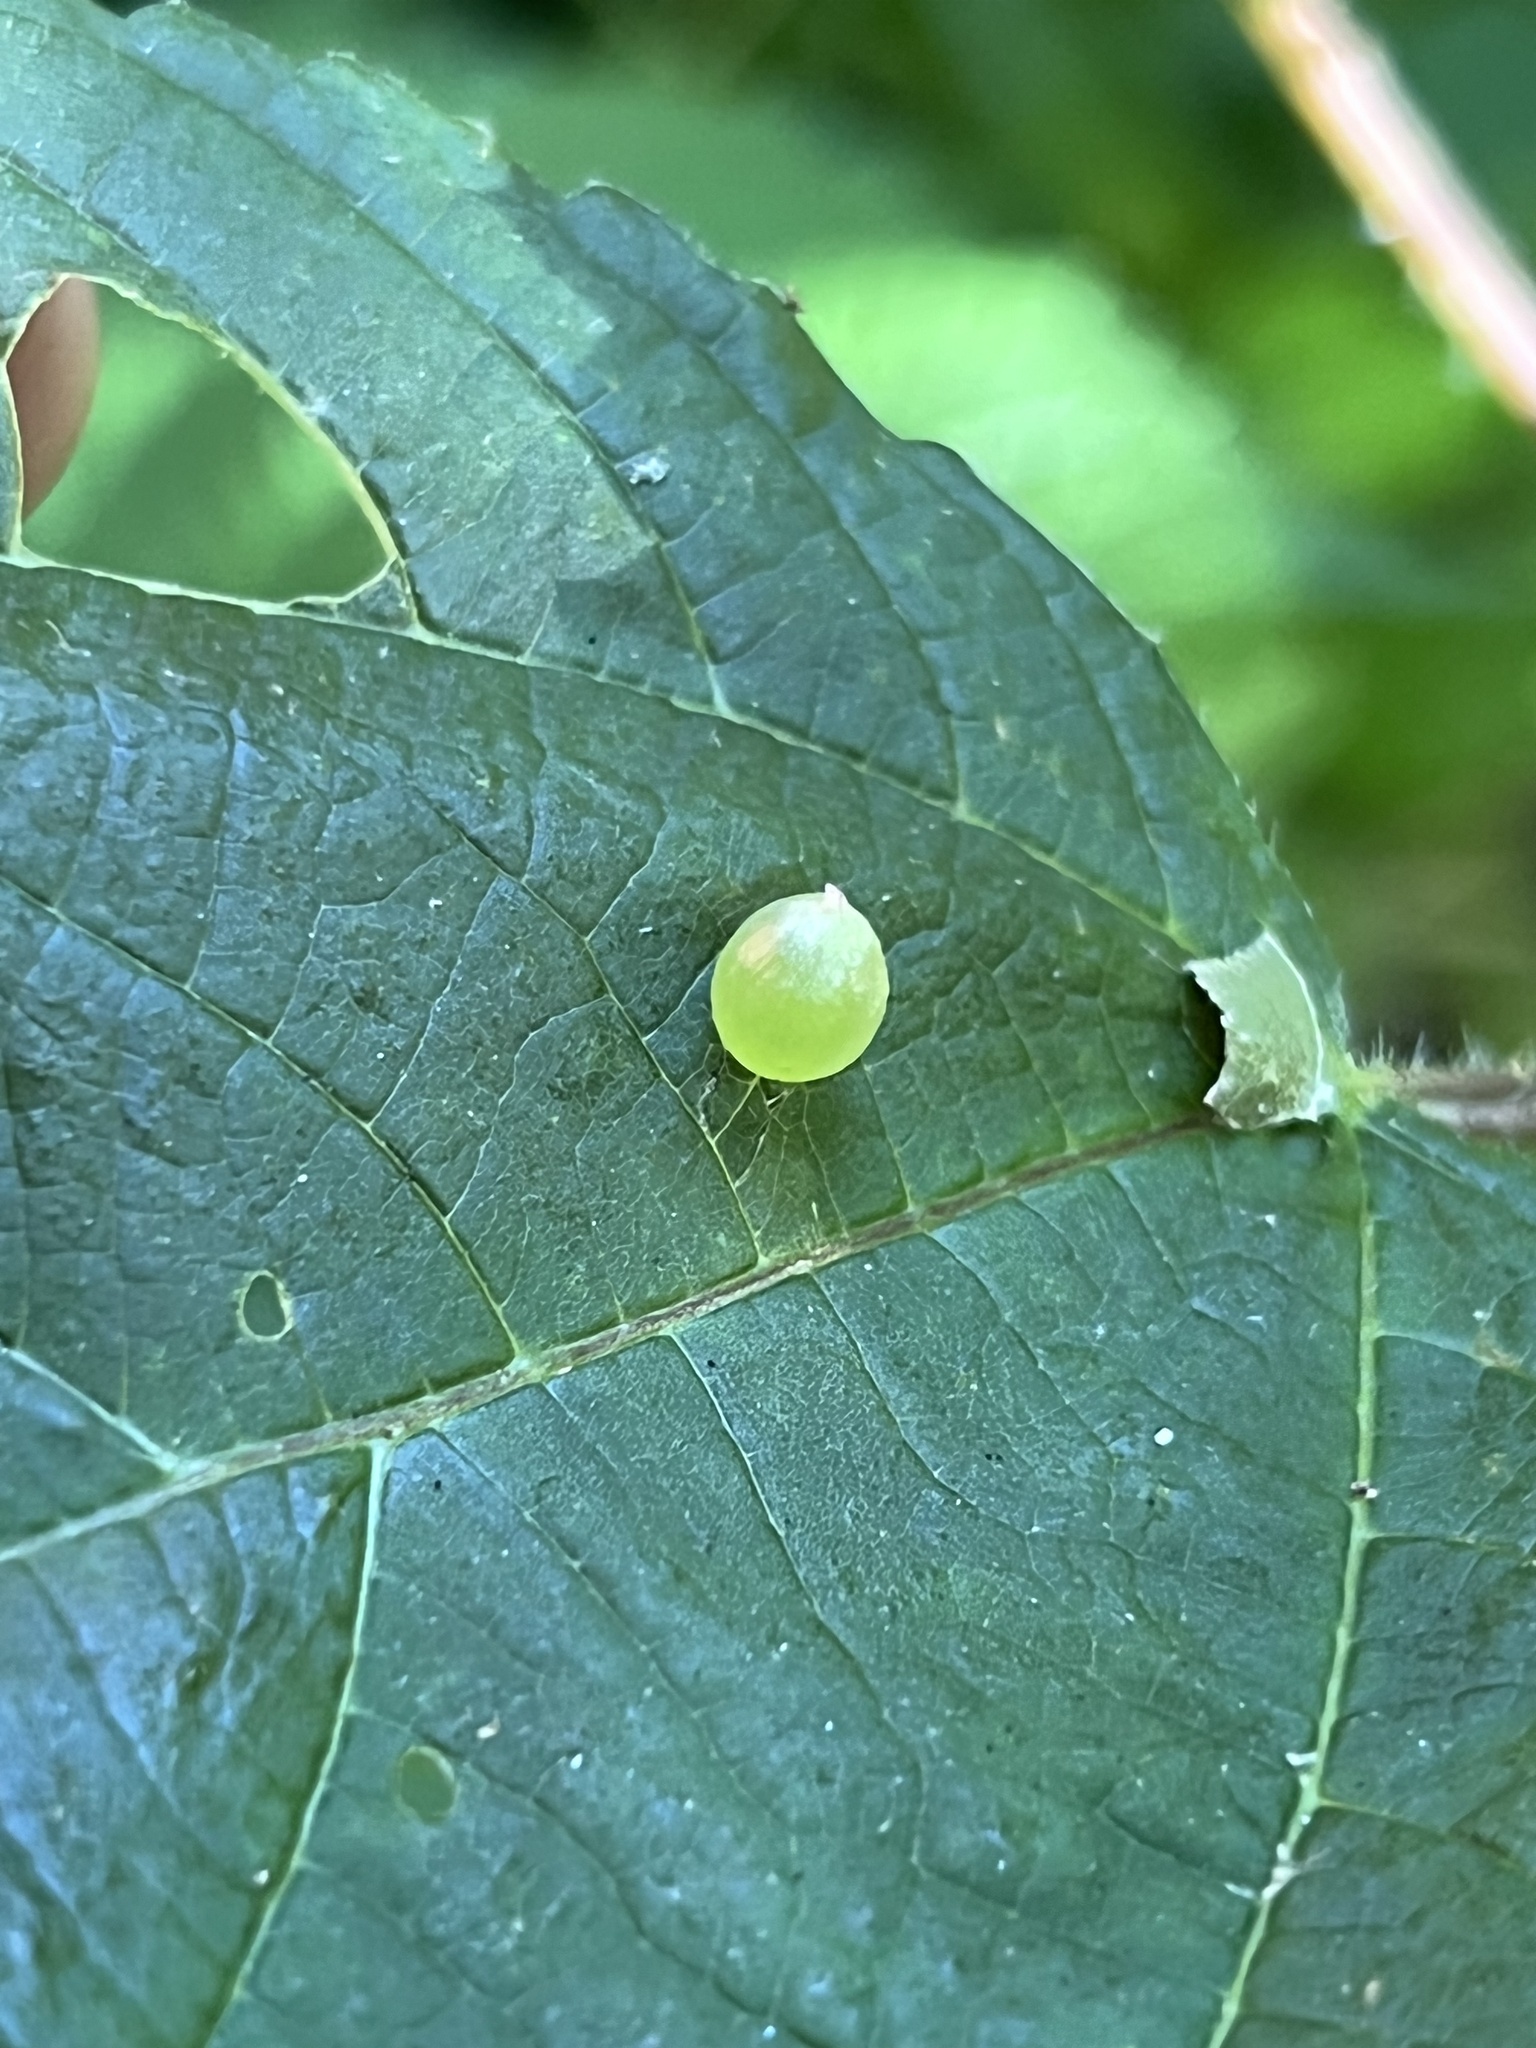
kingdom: Animalia
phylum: Arthropoda
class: Insecta
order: Diptera
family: Cecidomyiidae
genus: Dasineura
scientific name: Dasineura investita
